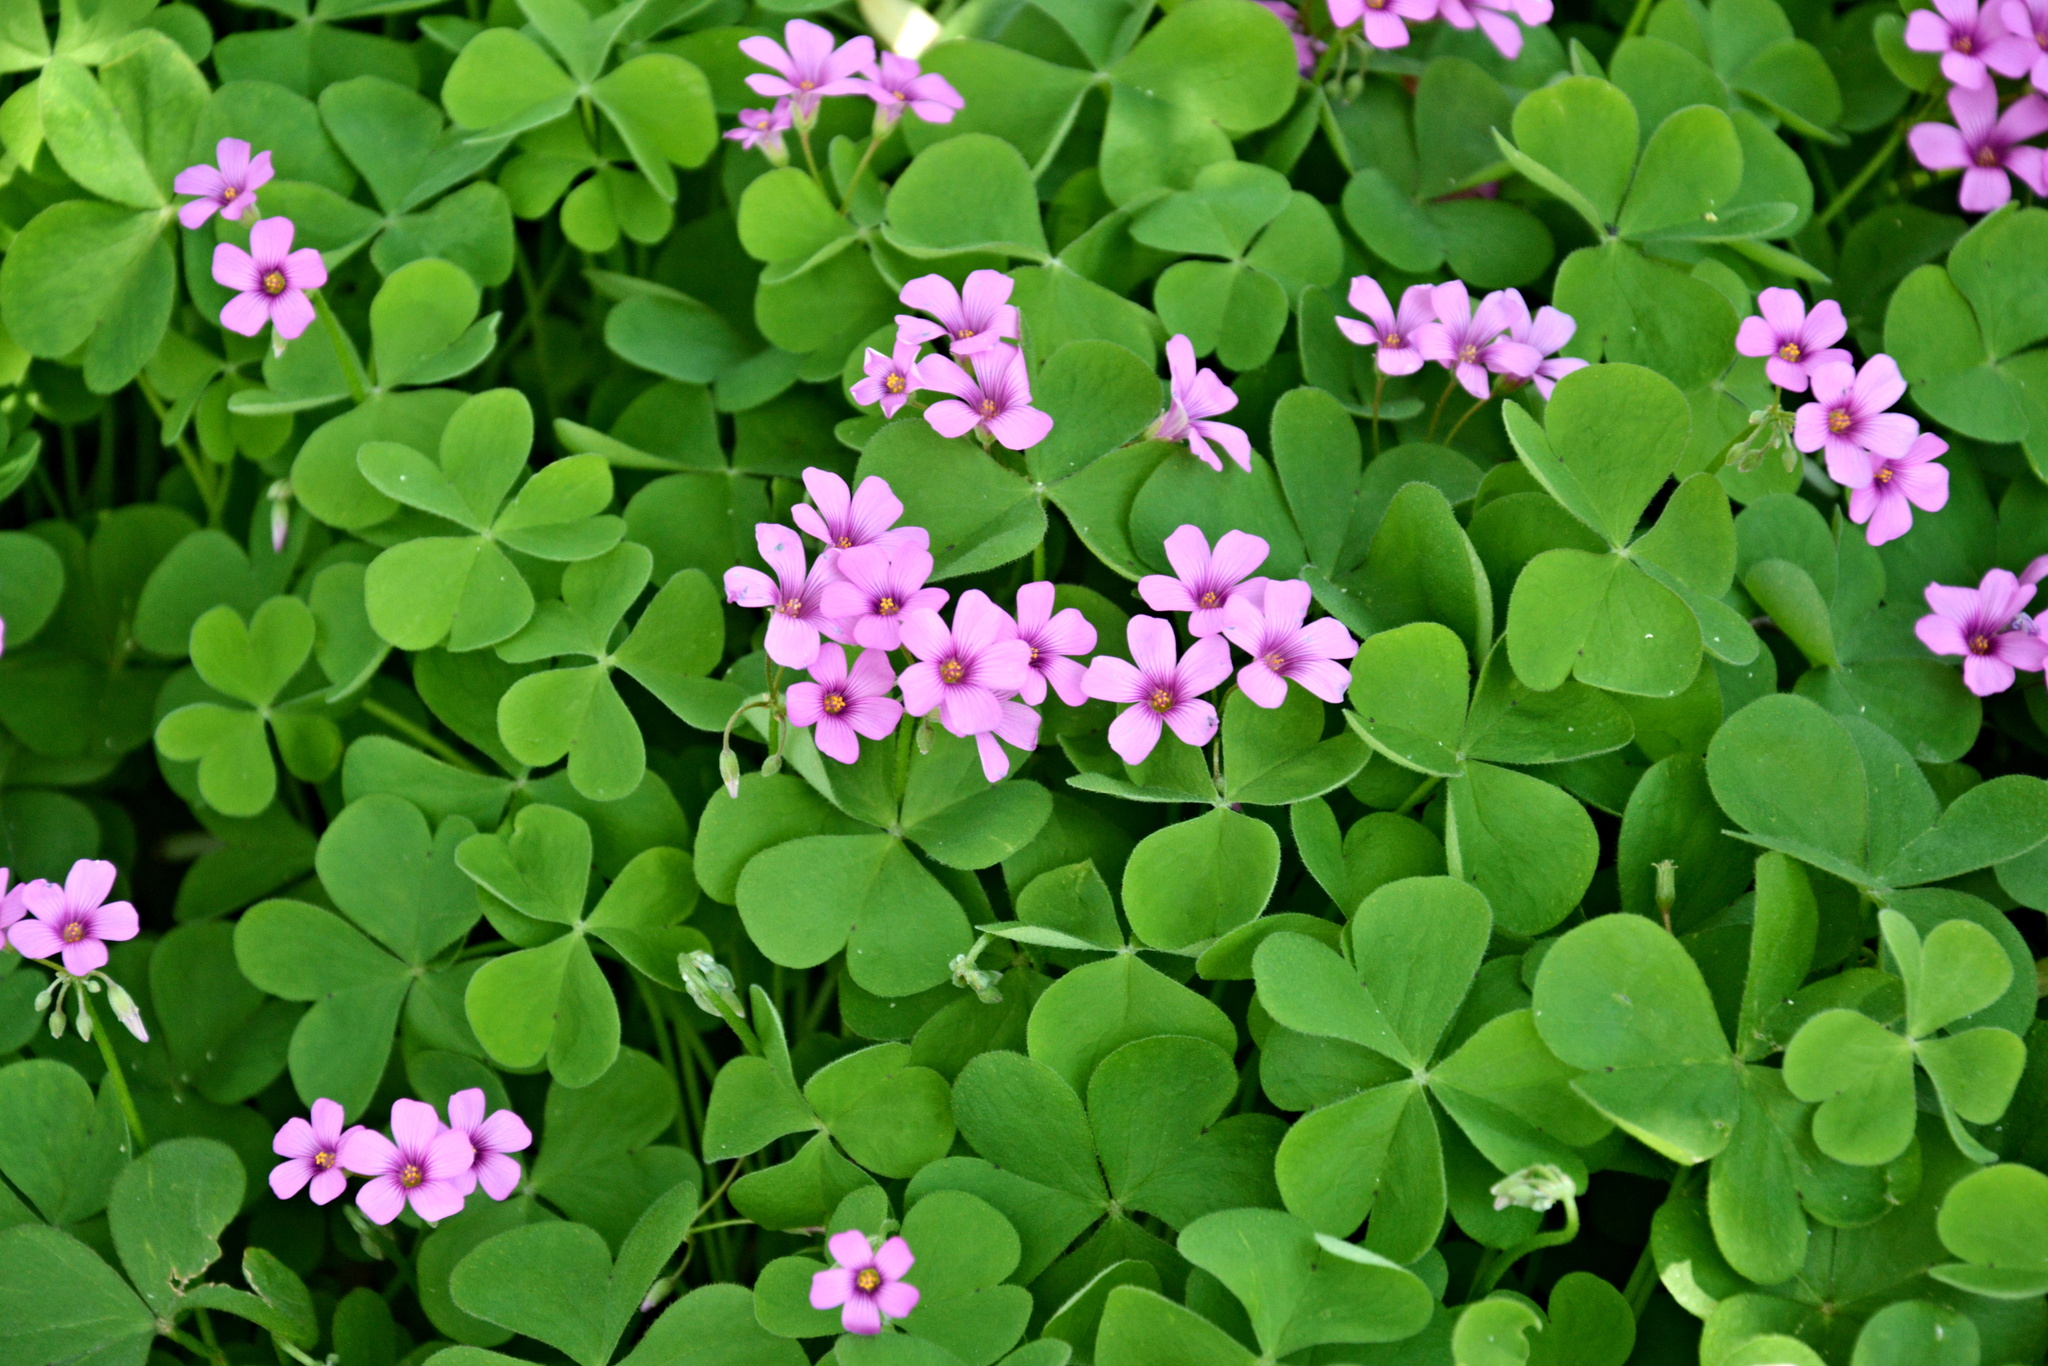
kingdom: Plantae
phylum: Tracheophyta
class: Magnoliopsida
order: Oxalidales
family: Oxalidaceae
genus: Oxalis
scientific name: Oxalis articulata
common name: Pink-sorrel
